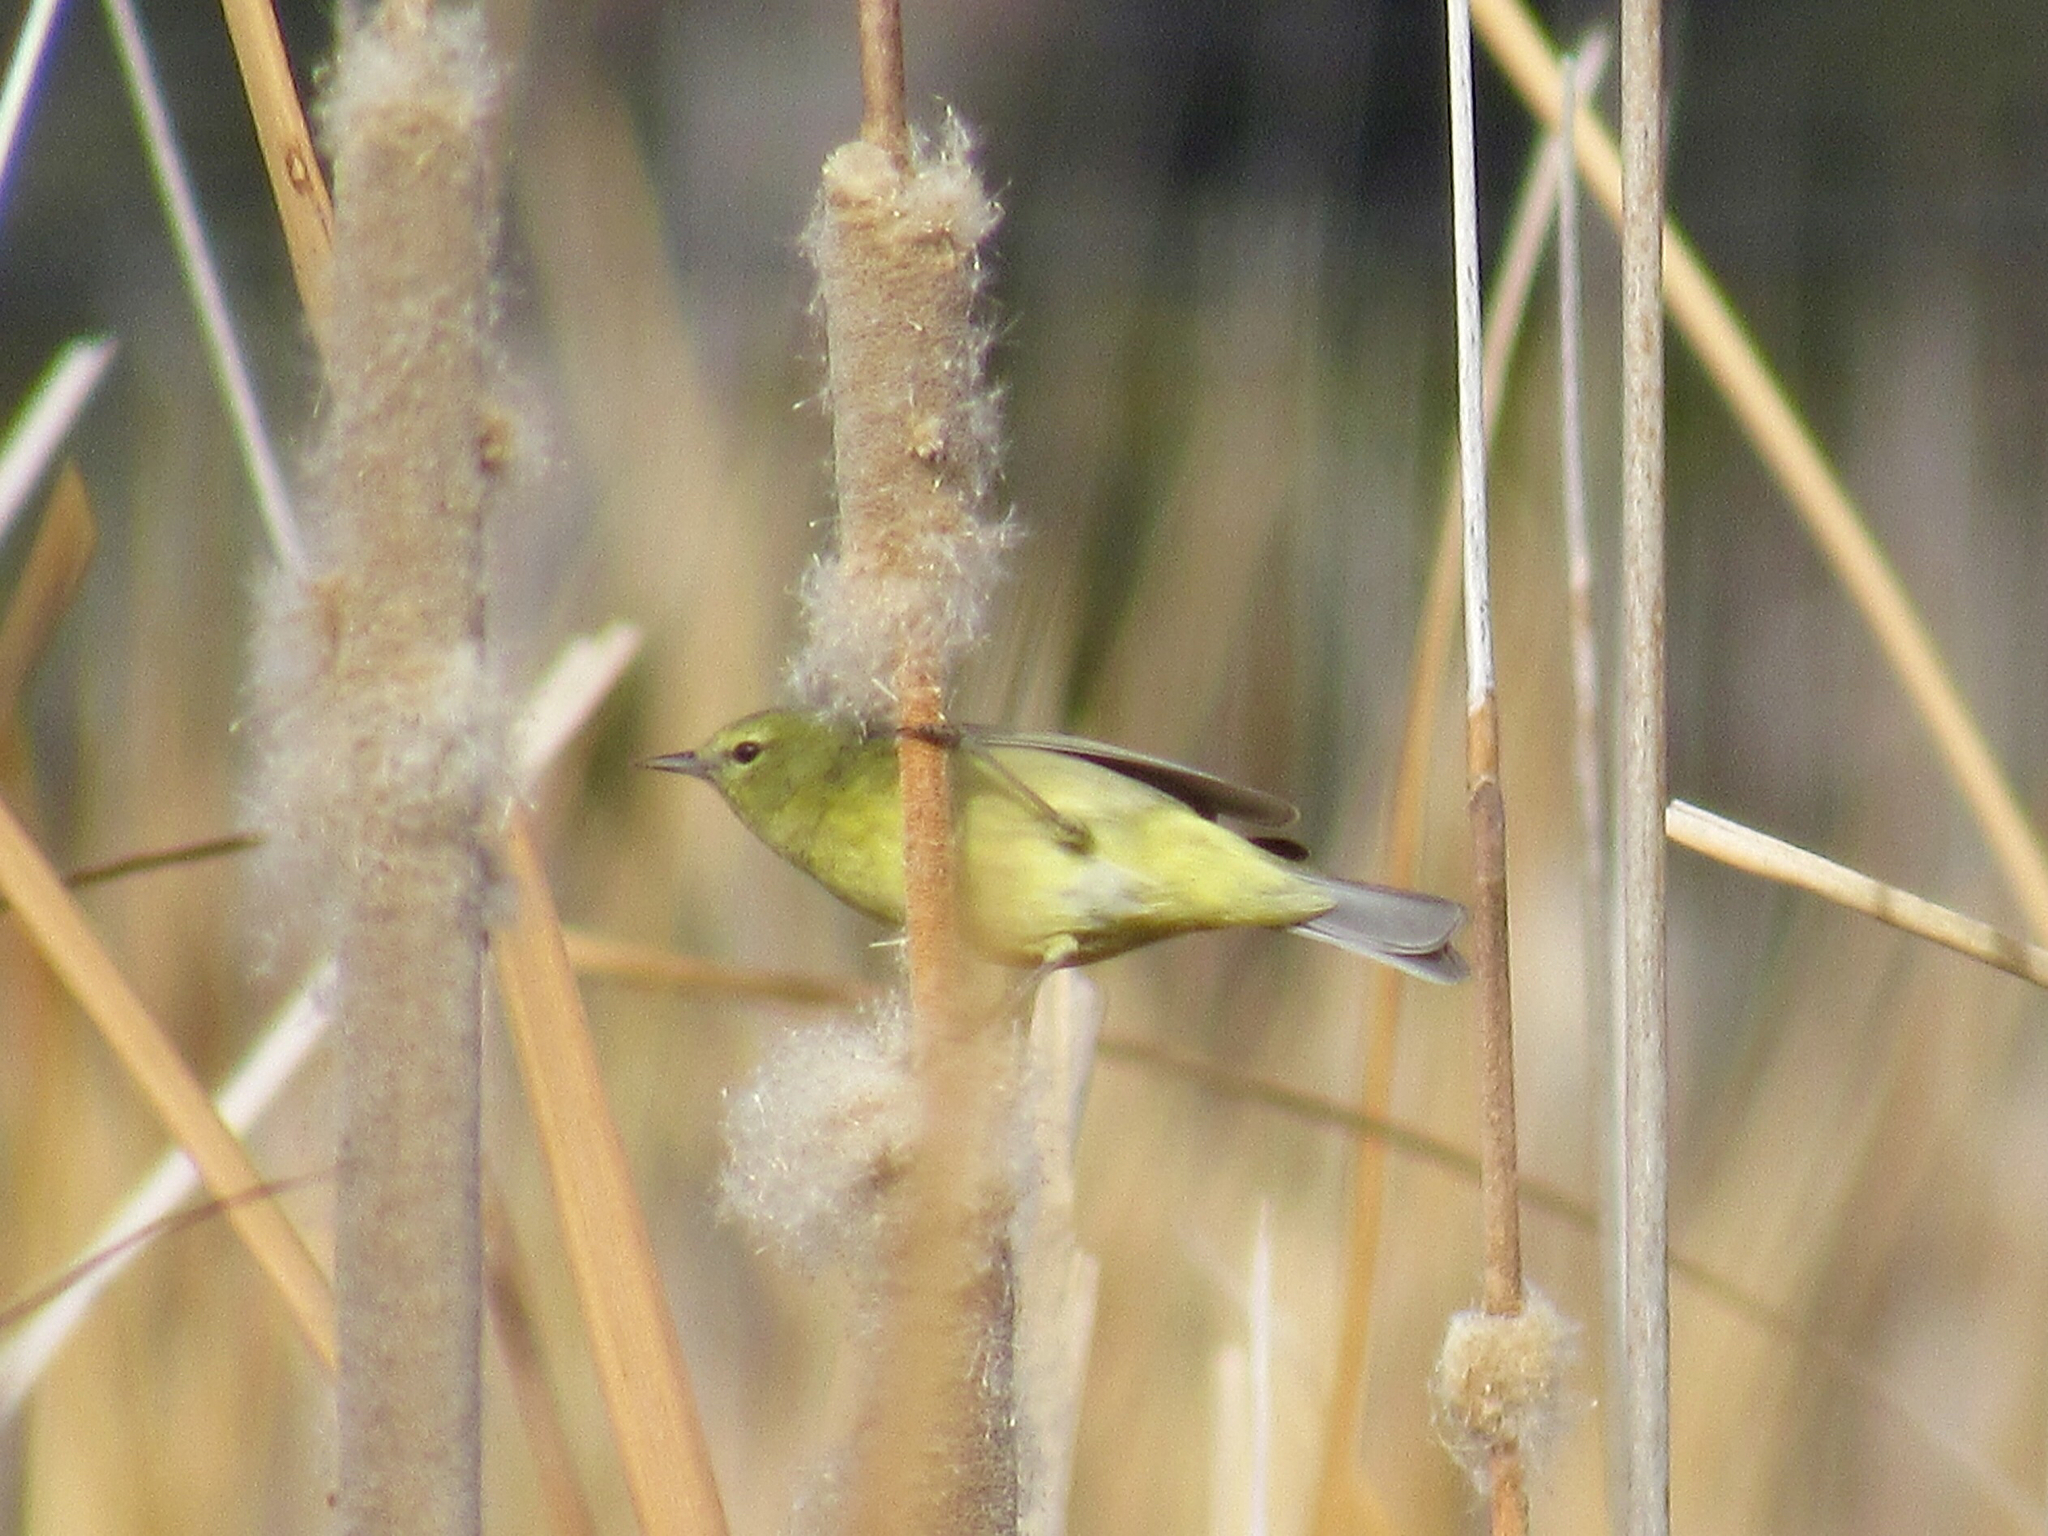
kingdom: Animalia
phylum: Chordata
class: Aves
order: Passeriformes
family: Parulidae
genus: Leiothlypis
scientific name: Leiothlypis celata
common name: Orange-crowned warbler
